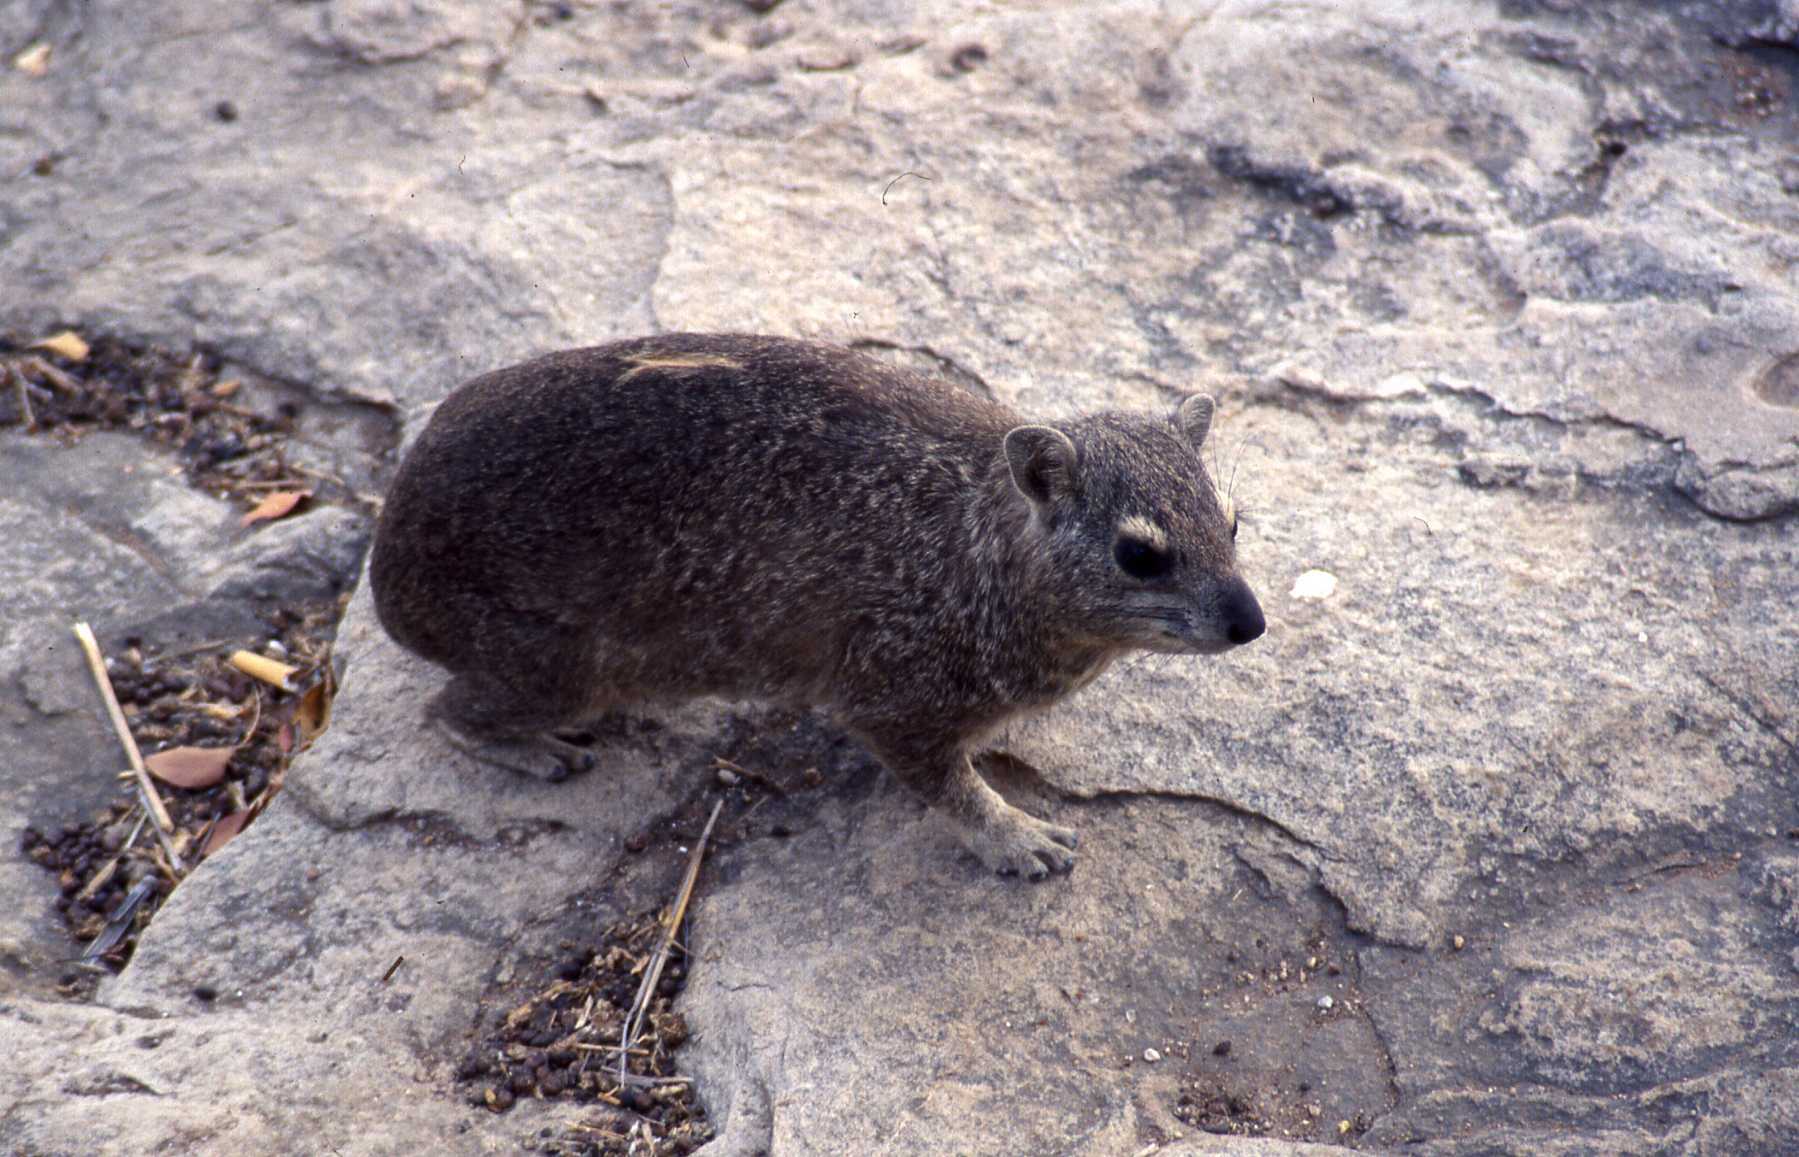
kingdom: Animalia
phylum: Chordata
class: Mammalia
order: Hyracoidea
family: Procaviidae
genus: Heterohyrax
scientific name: Heterohyrax brucei
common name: Bush hyrax
